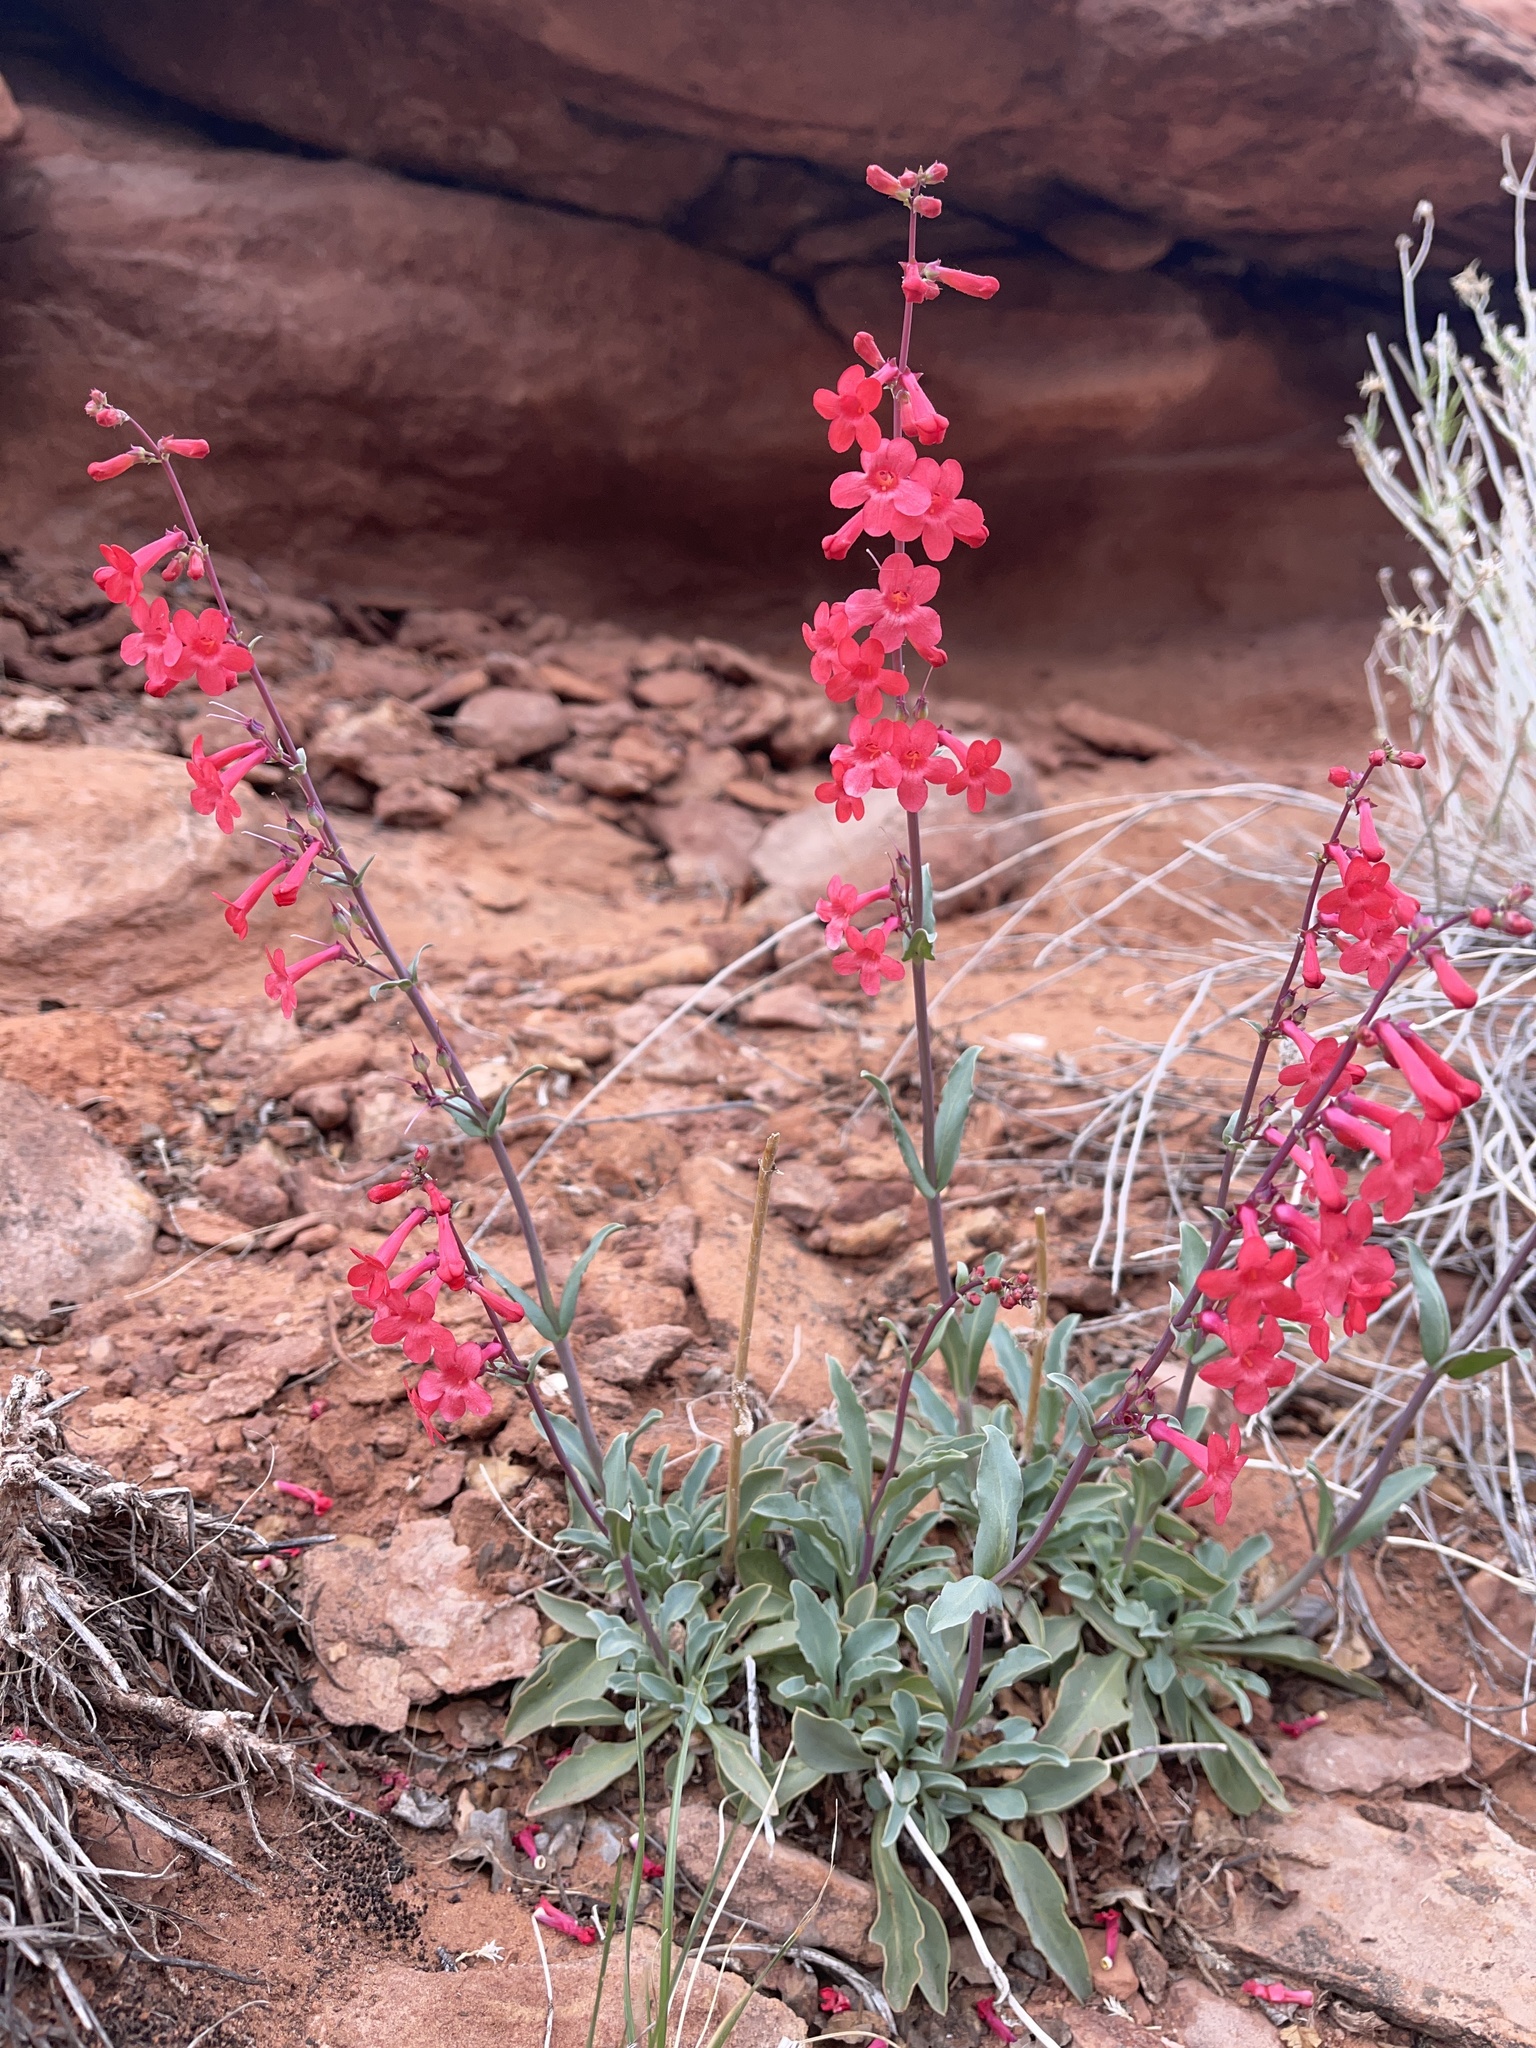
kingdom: Plantae
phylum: Tracheophyta
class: Magnoliopsida
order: Lamiales
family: Plantaginaceae
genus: Penstemon
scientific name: Penstemon utahensis
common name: Utah penstemon
